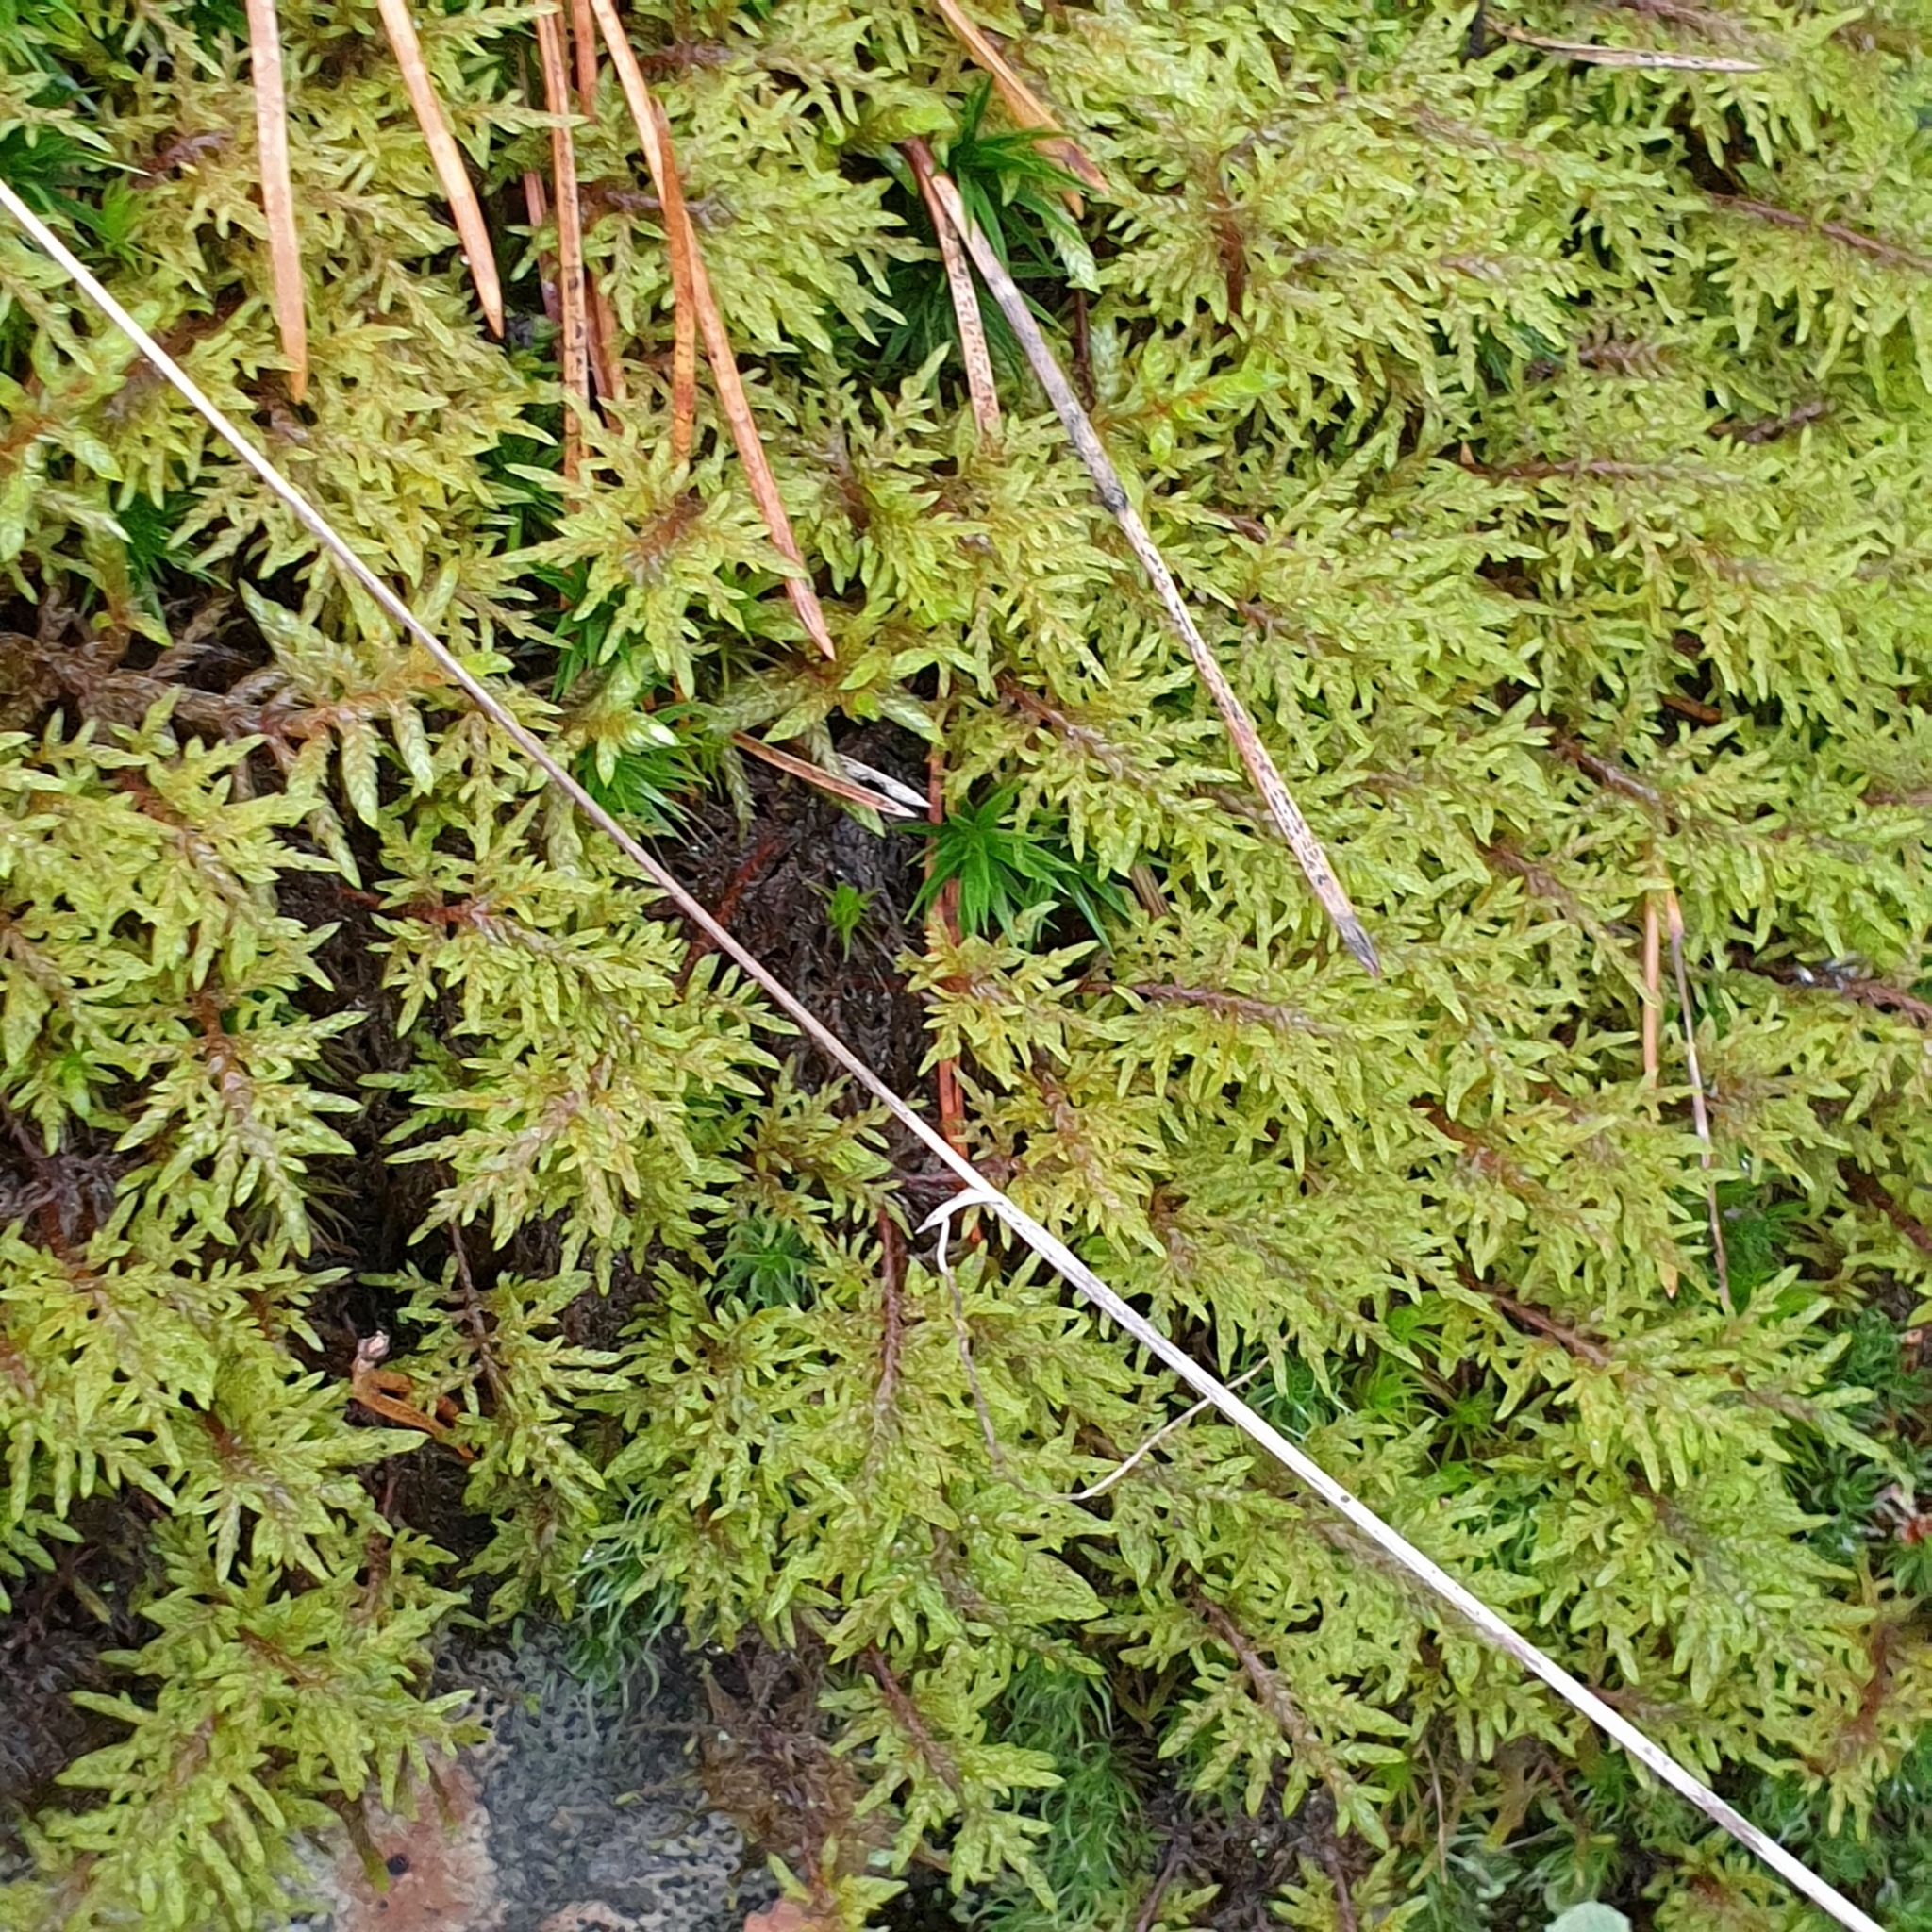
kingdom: Plantae
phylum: Bryophyta
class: Bryopsida
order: Hypnales
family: Hylocomiaceae
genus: Hylocomium
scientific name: Hylocomium splendens
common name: Stairstep moss
